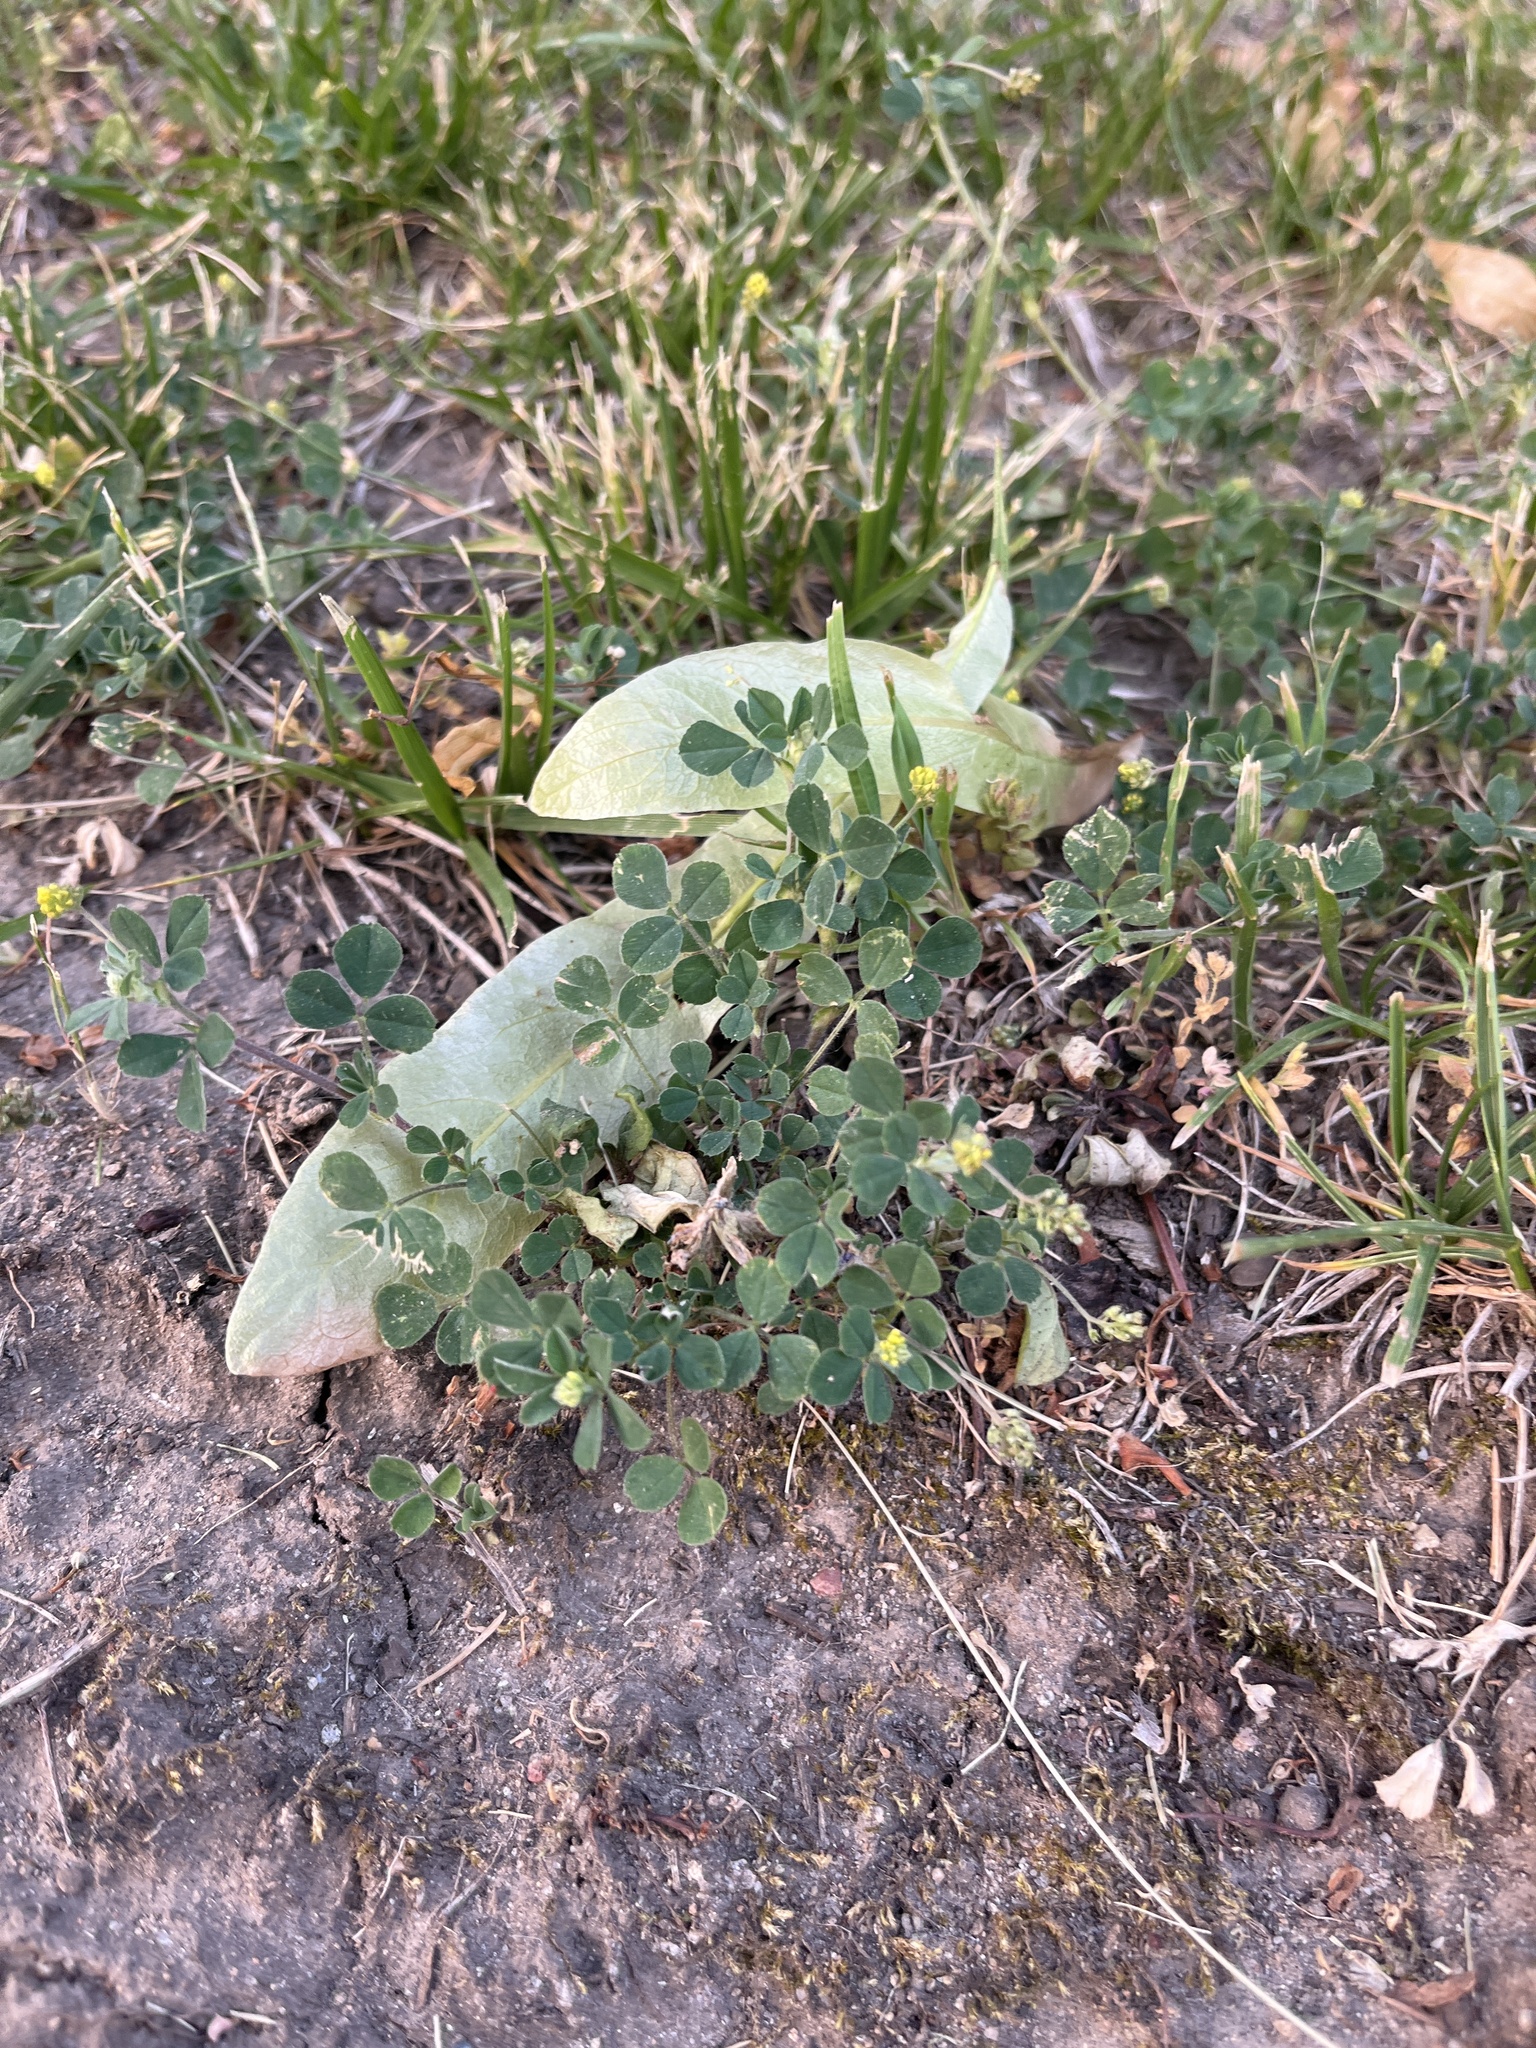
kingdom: Plantae
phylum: Tracheophyta
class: Magnoliopsida
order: Fabales
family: Fabaceae
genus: Medicago
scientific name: Medicago lupulina
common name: Black medick
